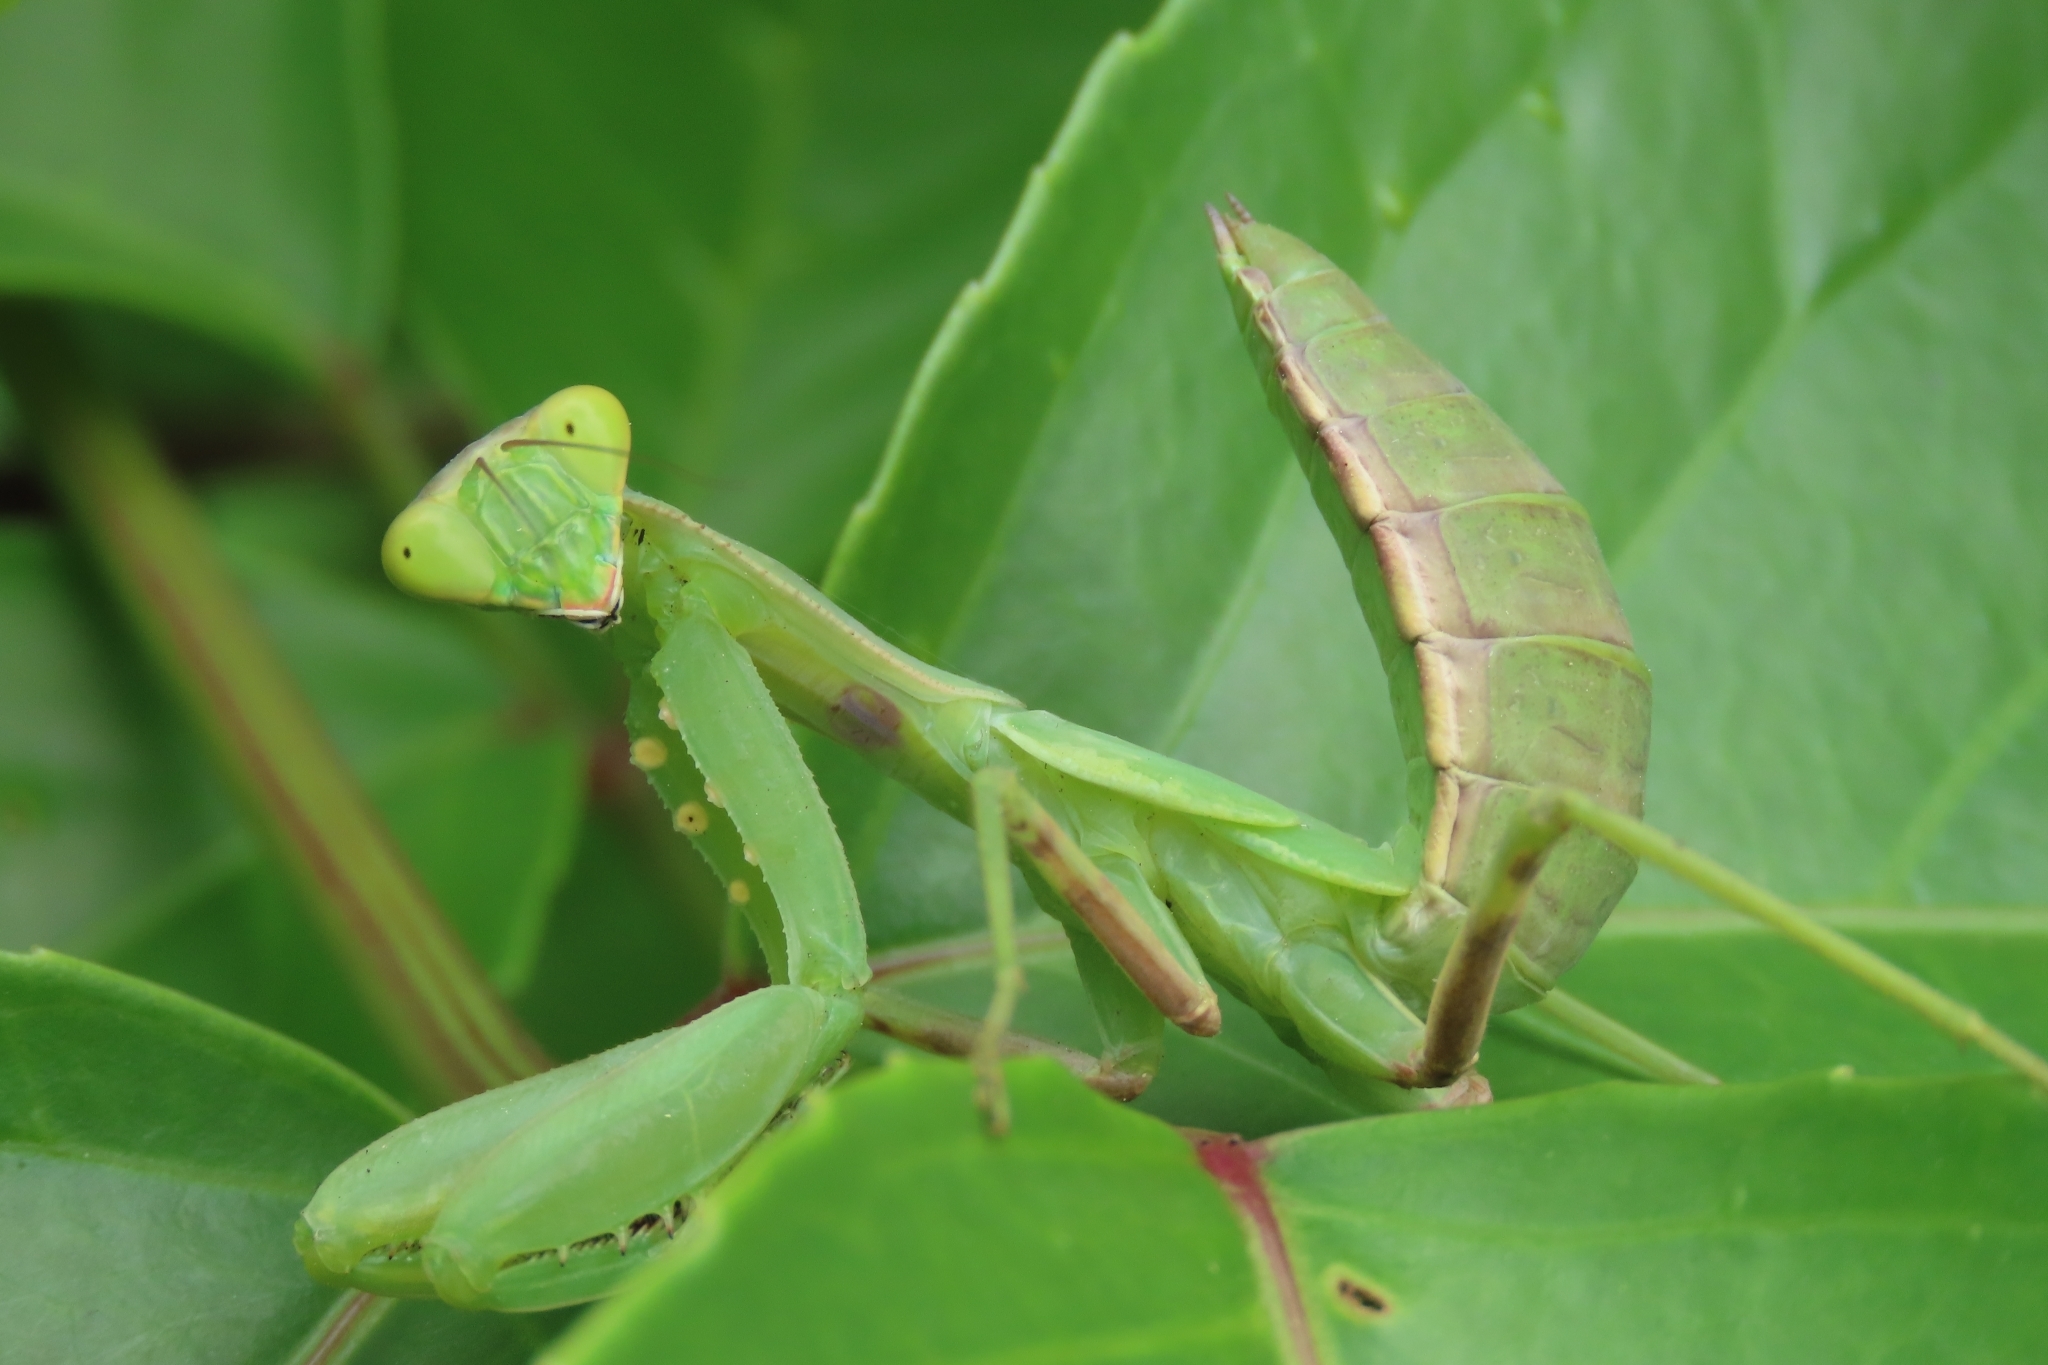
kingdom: Animalia
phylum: Arthropoda
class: Insecta
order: Mantodea
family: Mantidae
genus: Hierodula
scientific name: Hierodula patellifera
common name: Asian mantis
